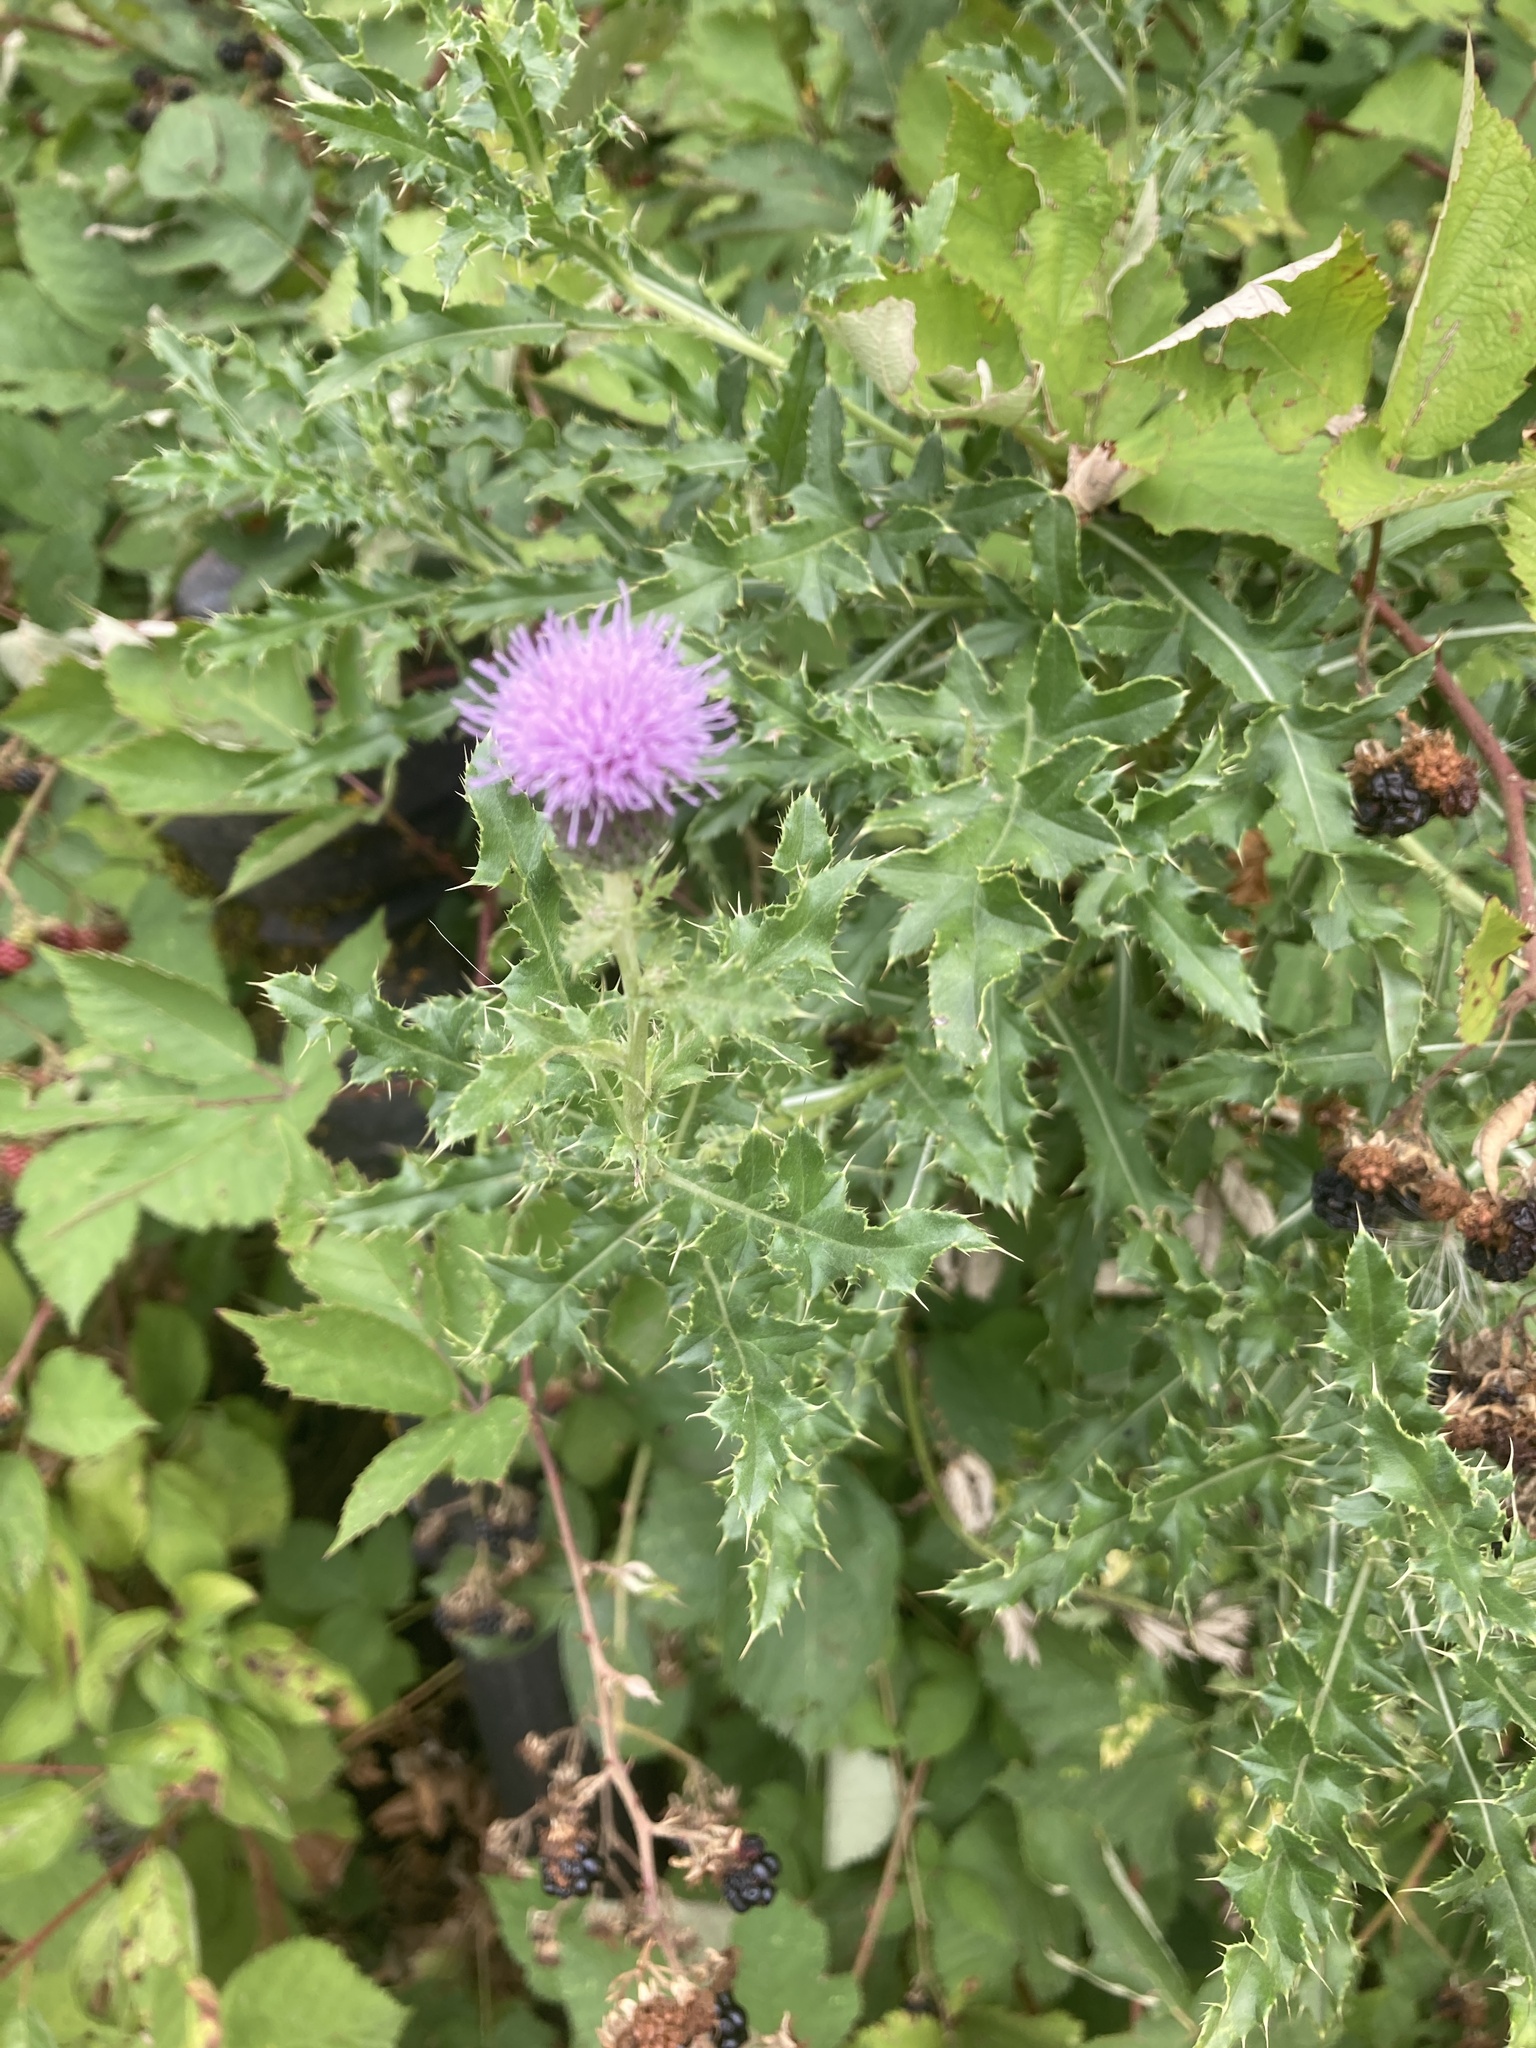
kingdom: Plantae
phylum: Tracheophyta
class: Magnoliopsida
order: Asterales
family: Asteraceae
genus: Cirsium
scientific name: Cirsium arvense
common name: Creeping thistle
